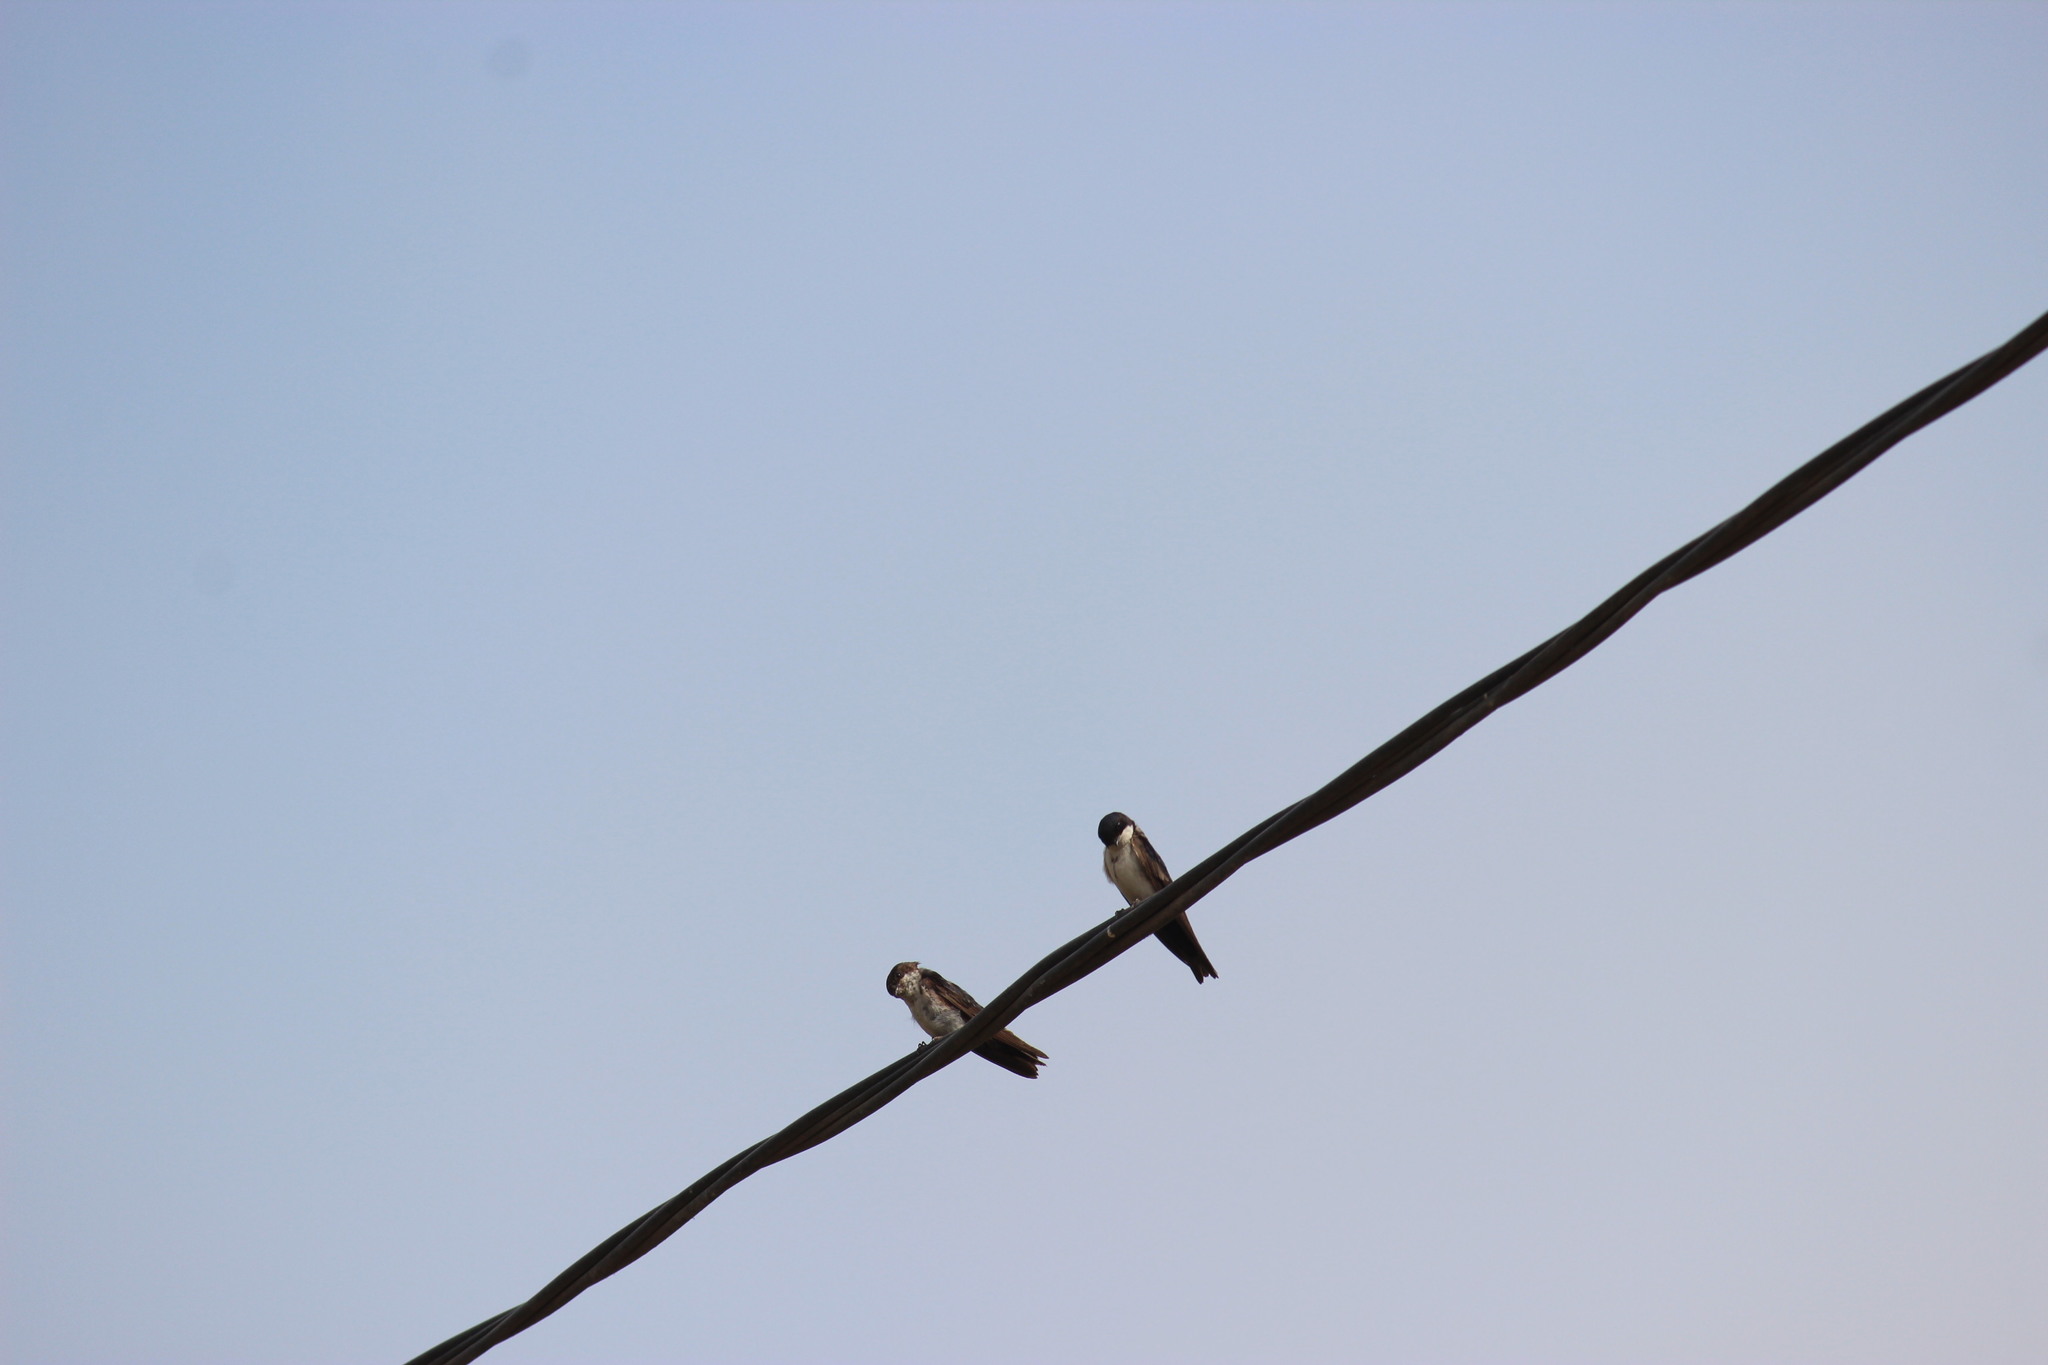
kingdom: Animalia
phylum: Chordata
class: Aves
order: Passeriformes
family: Hirundinidae
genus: Notiochelidon
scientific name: Notiochelidon cyanoleuca
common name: Blue-and-white swallow
